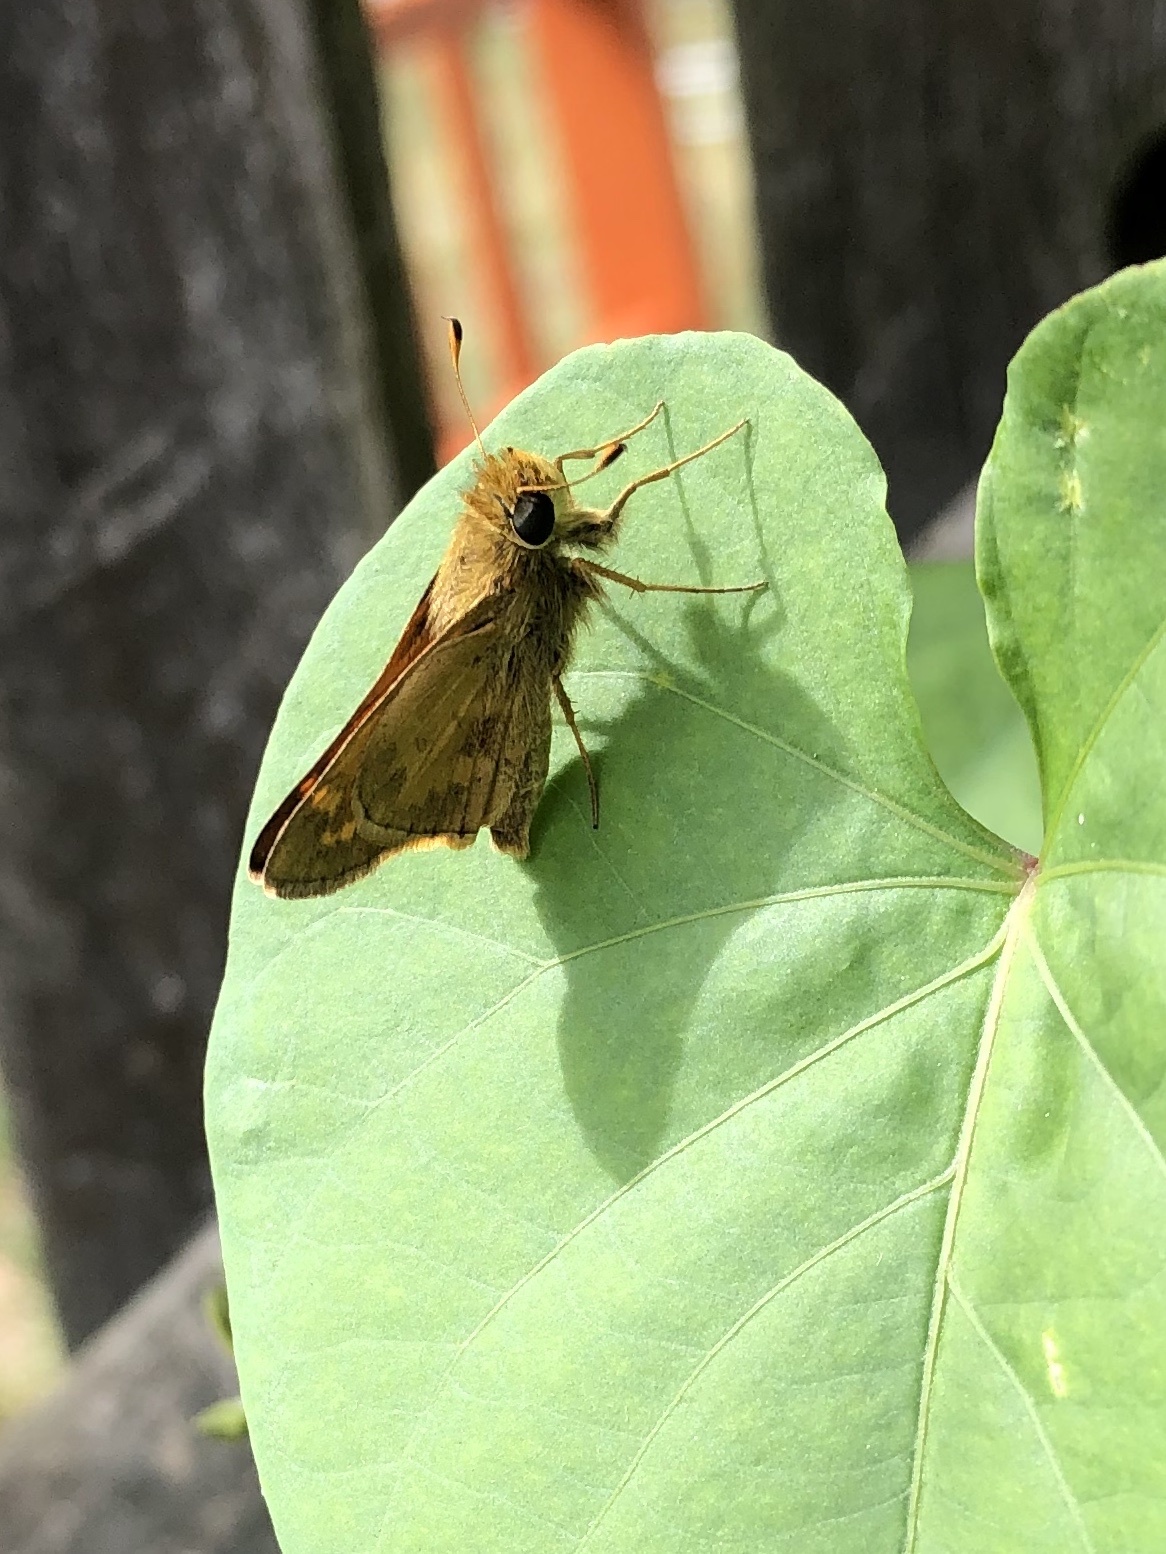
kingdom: Animalia
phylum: Arthropoda
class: Insecta
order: Lepidoptera
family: Hesperiidae
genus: Atalopedes
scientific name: Atalopedes
